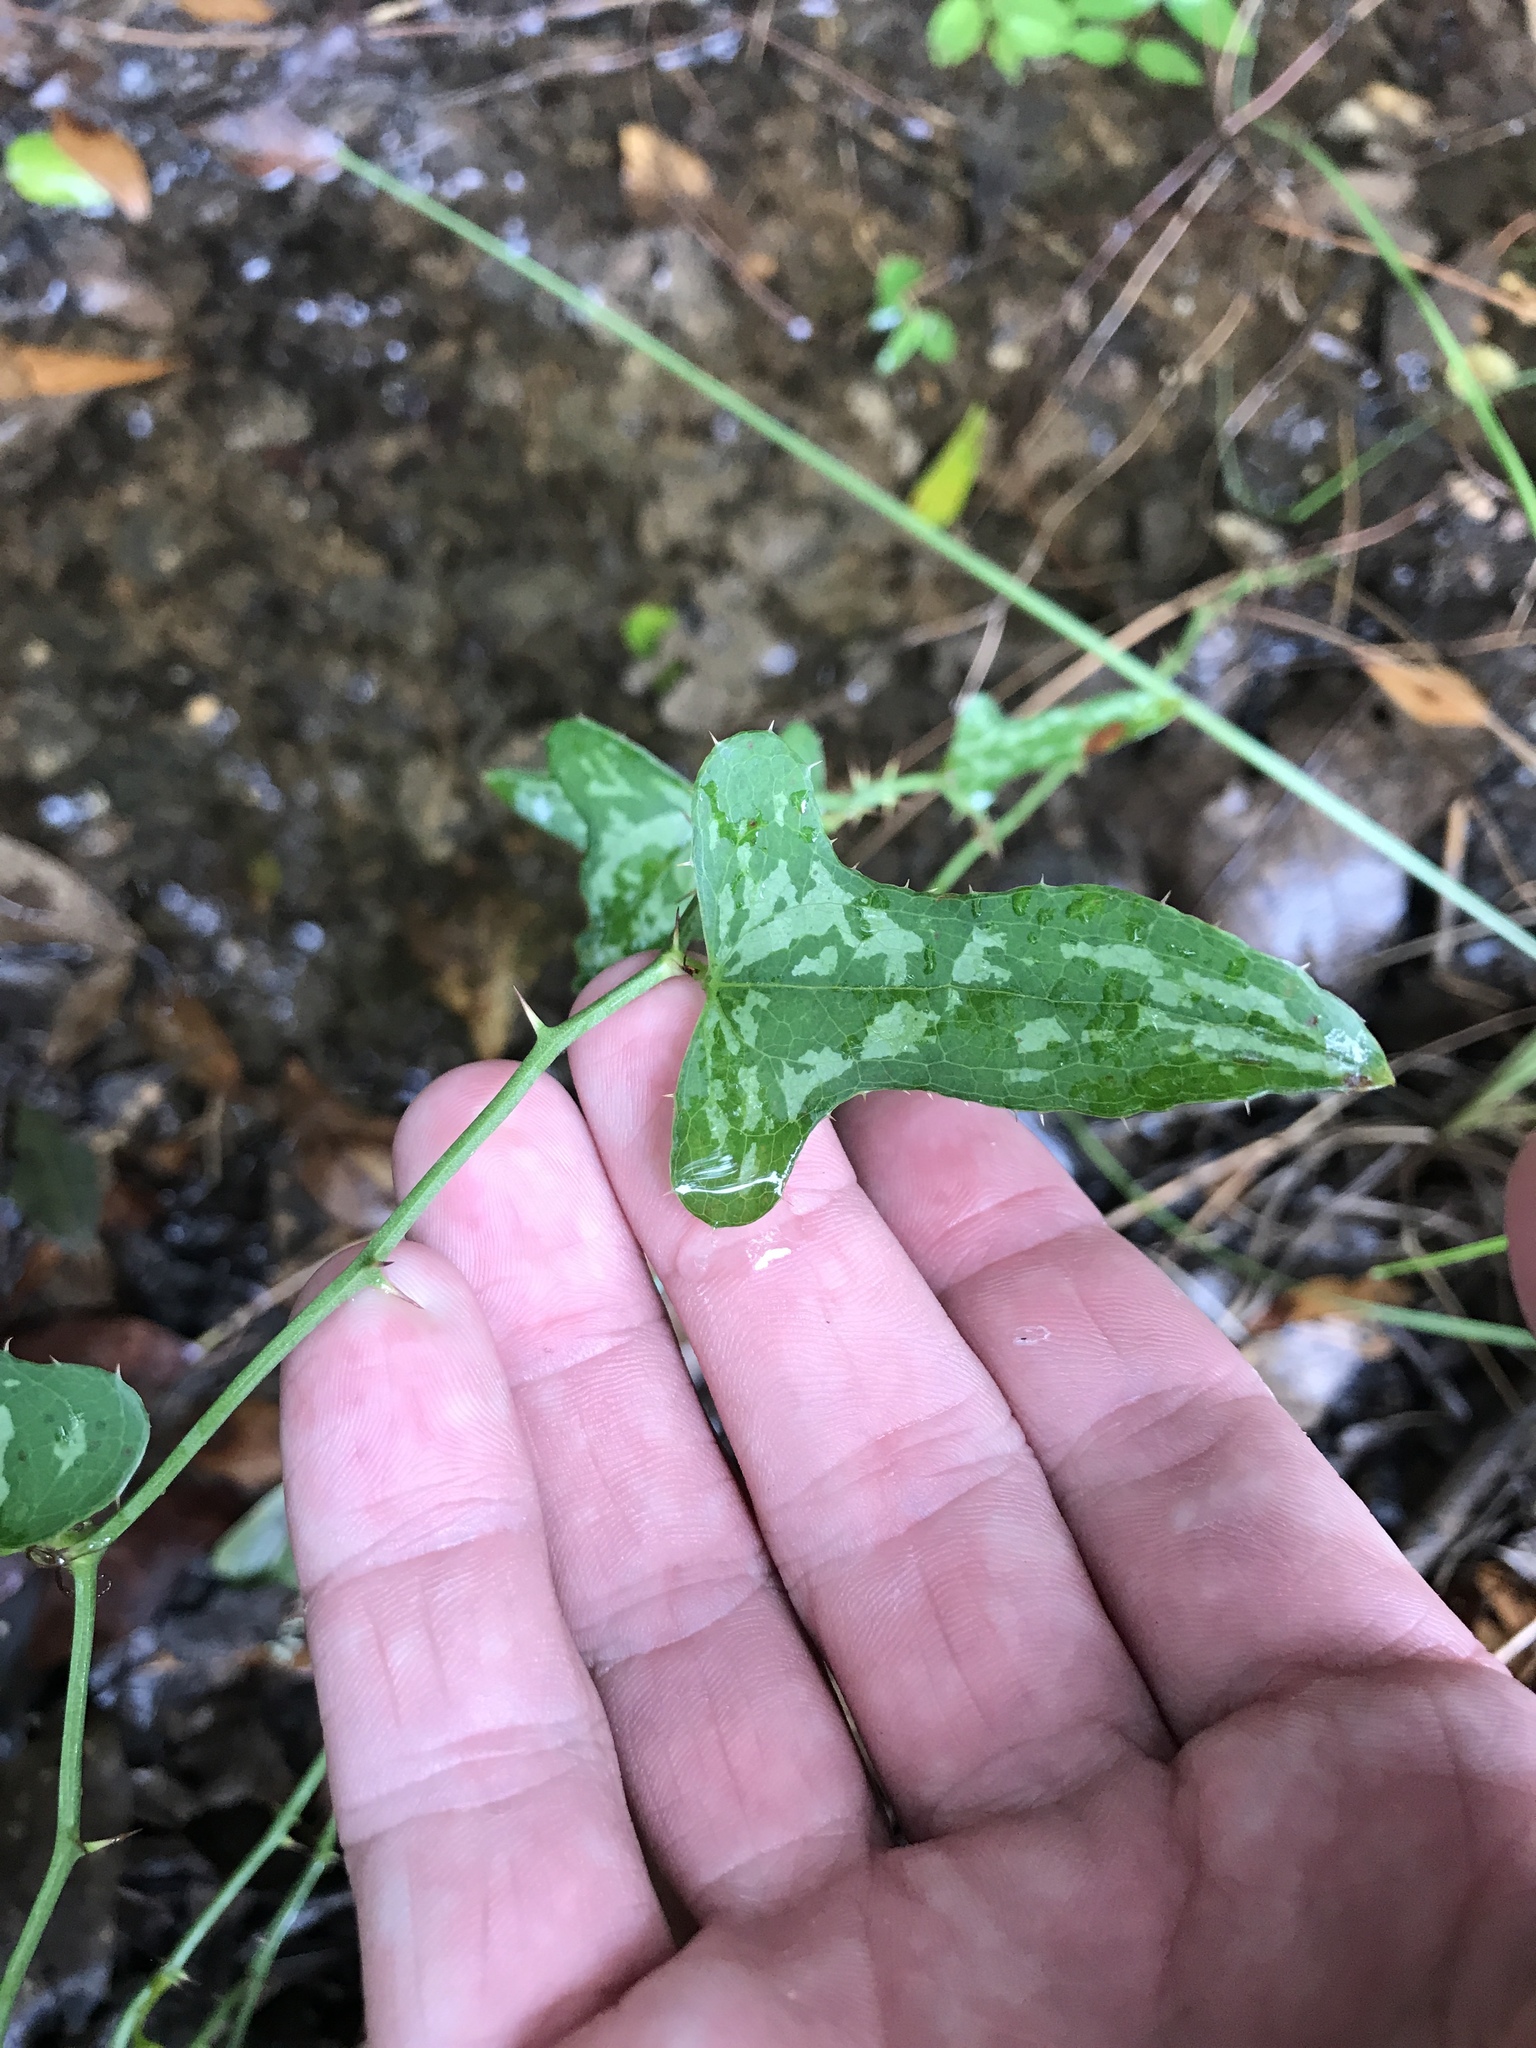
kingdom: Plantae
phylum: Tracheophyta
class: Liliopsida
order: Liliales
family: Smilacaceae
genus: Smilax
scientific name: Smilax bona-nox
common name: Catbrier
